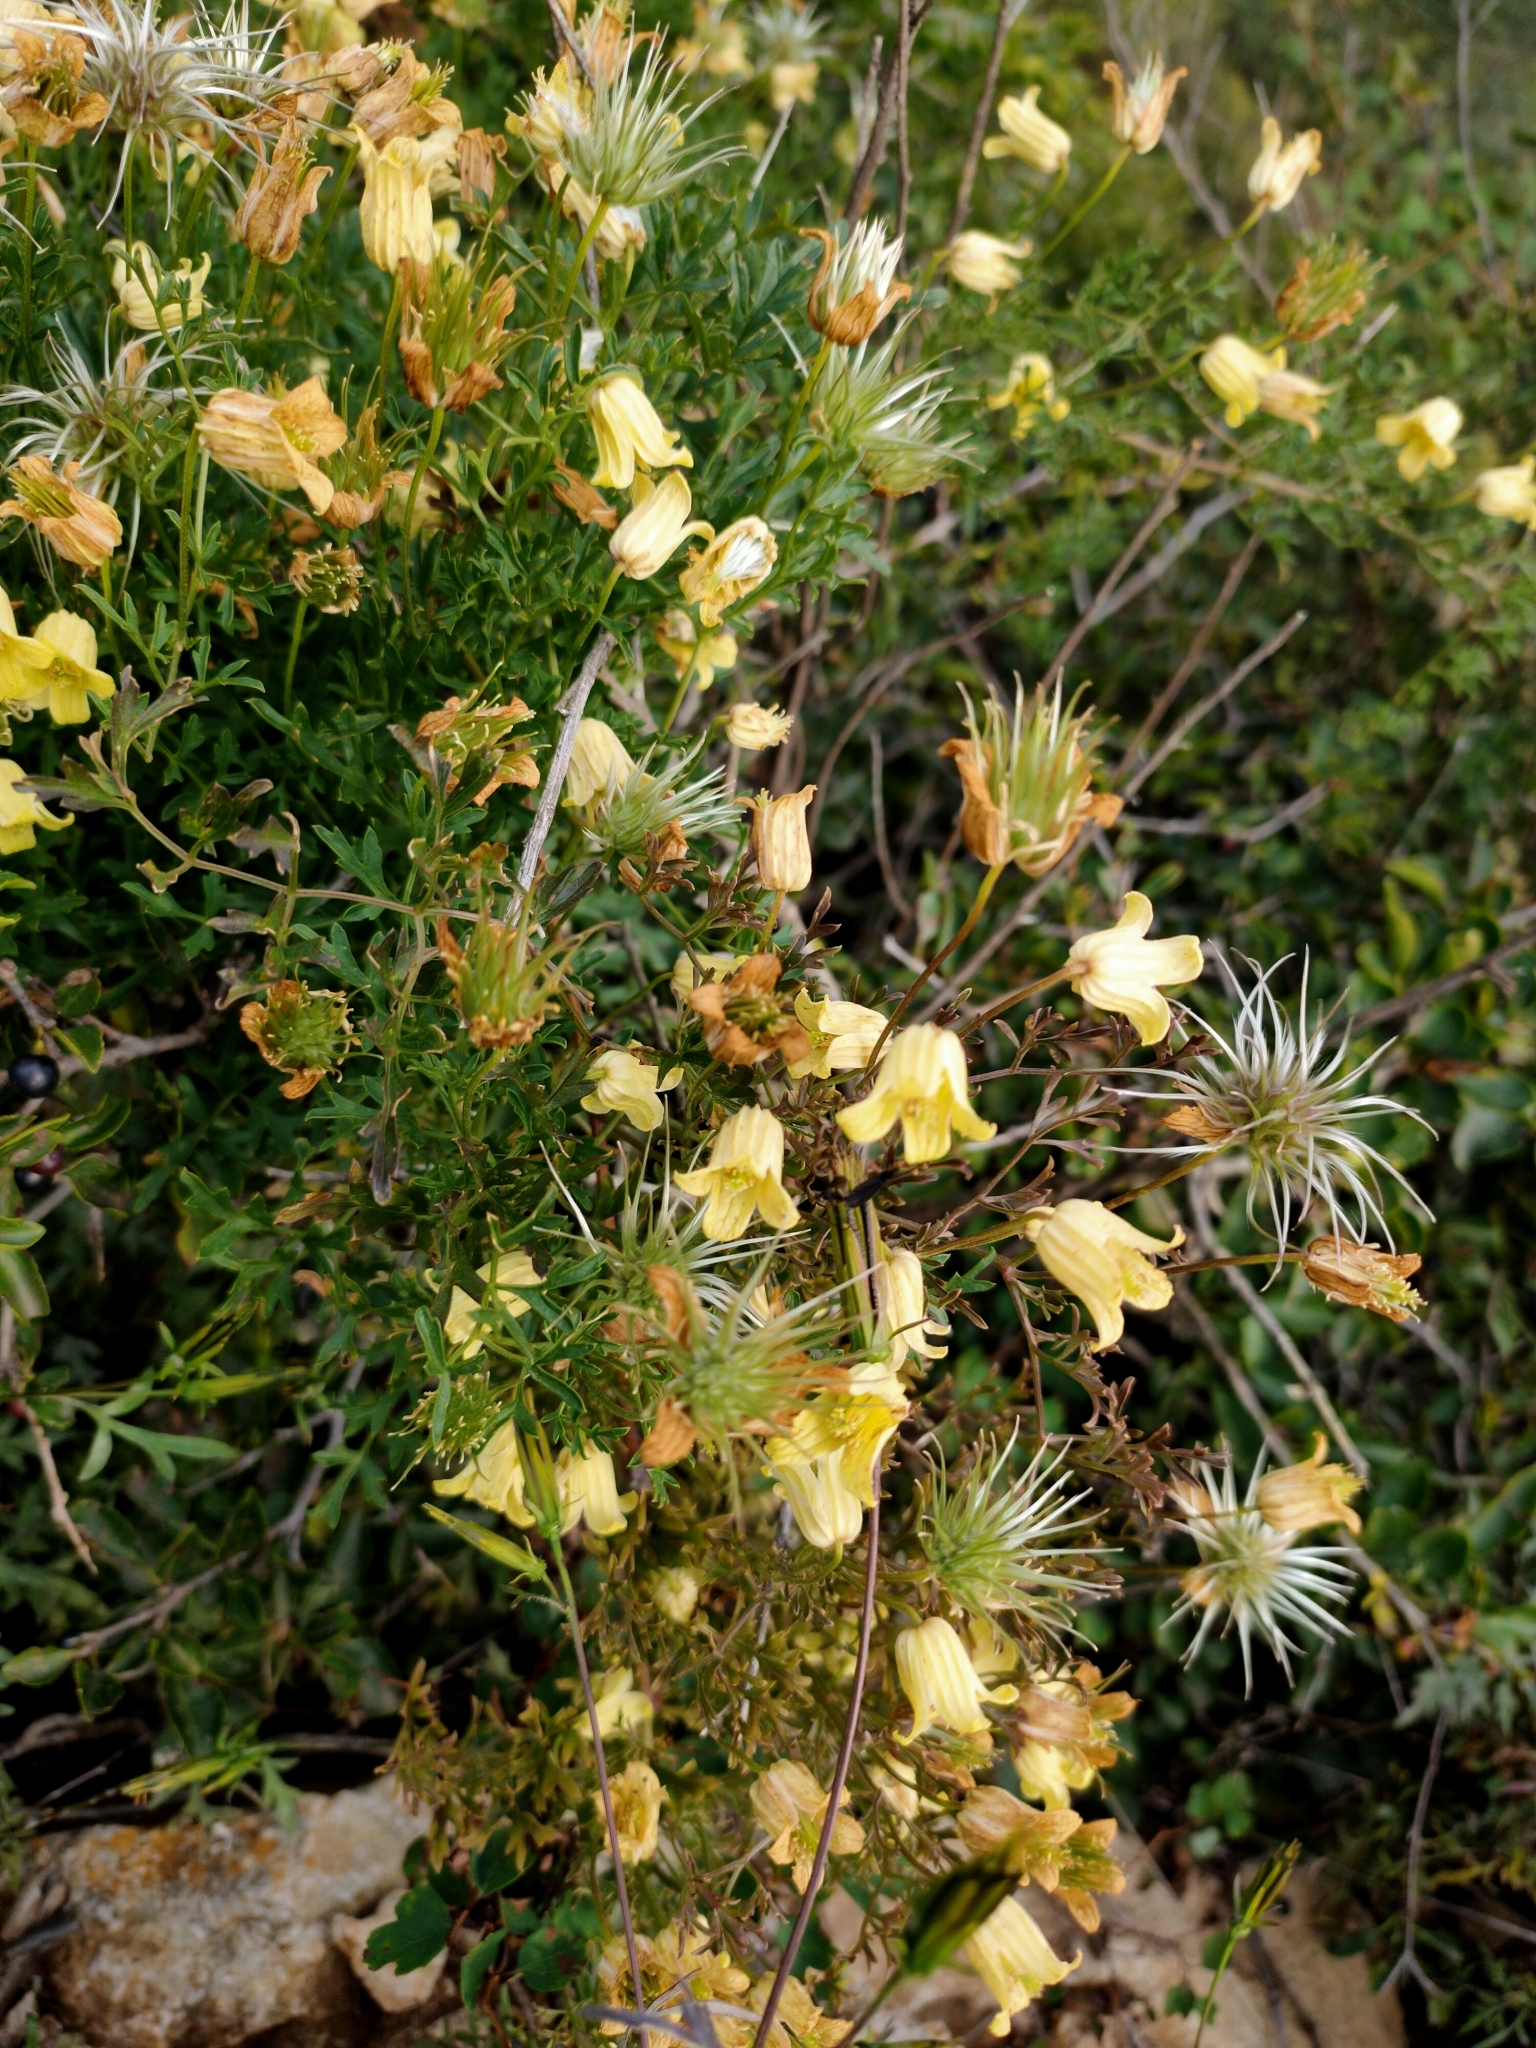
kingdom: Plantae
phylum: Tracheophyta
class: Magnoliopsida
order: Ranunculales
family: Ranunculaceae
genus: Clematis
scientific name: Clematis aethusifolia
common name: Parsley-leaf clematis
